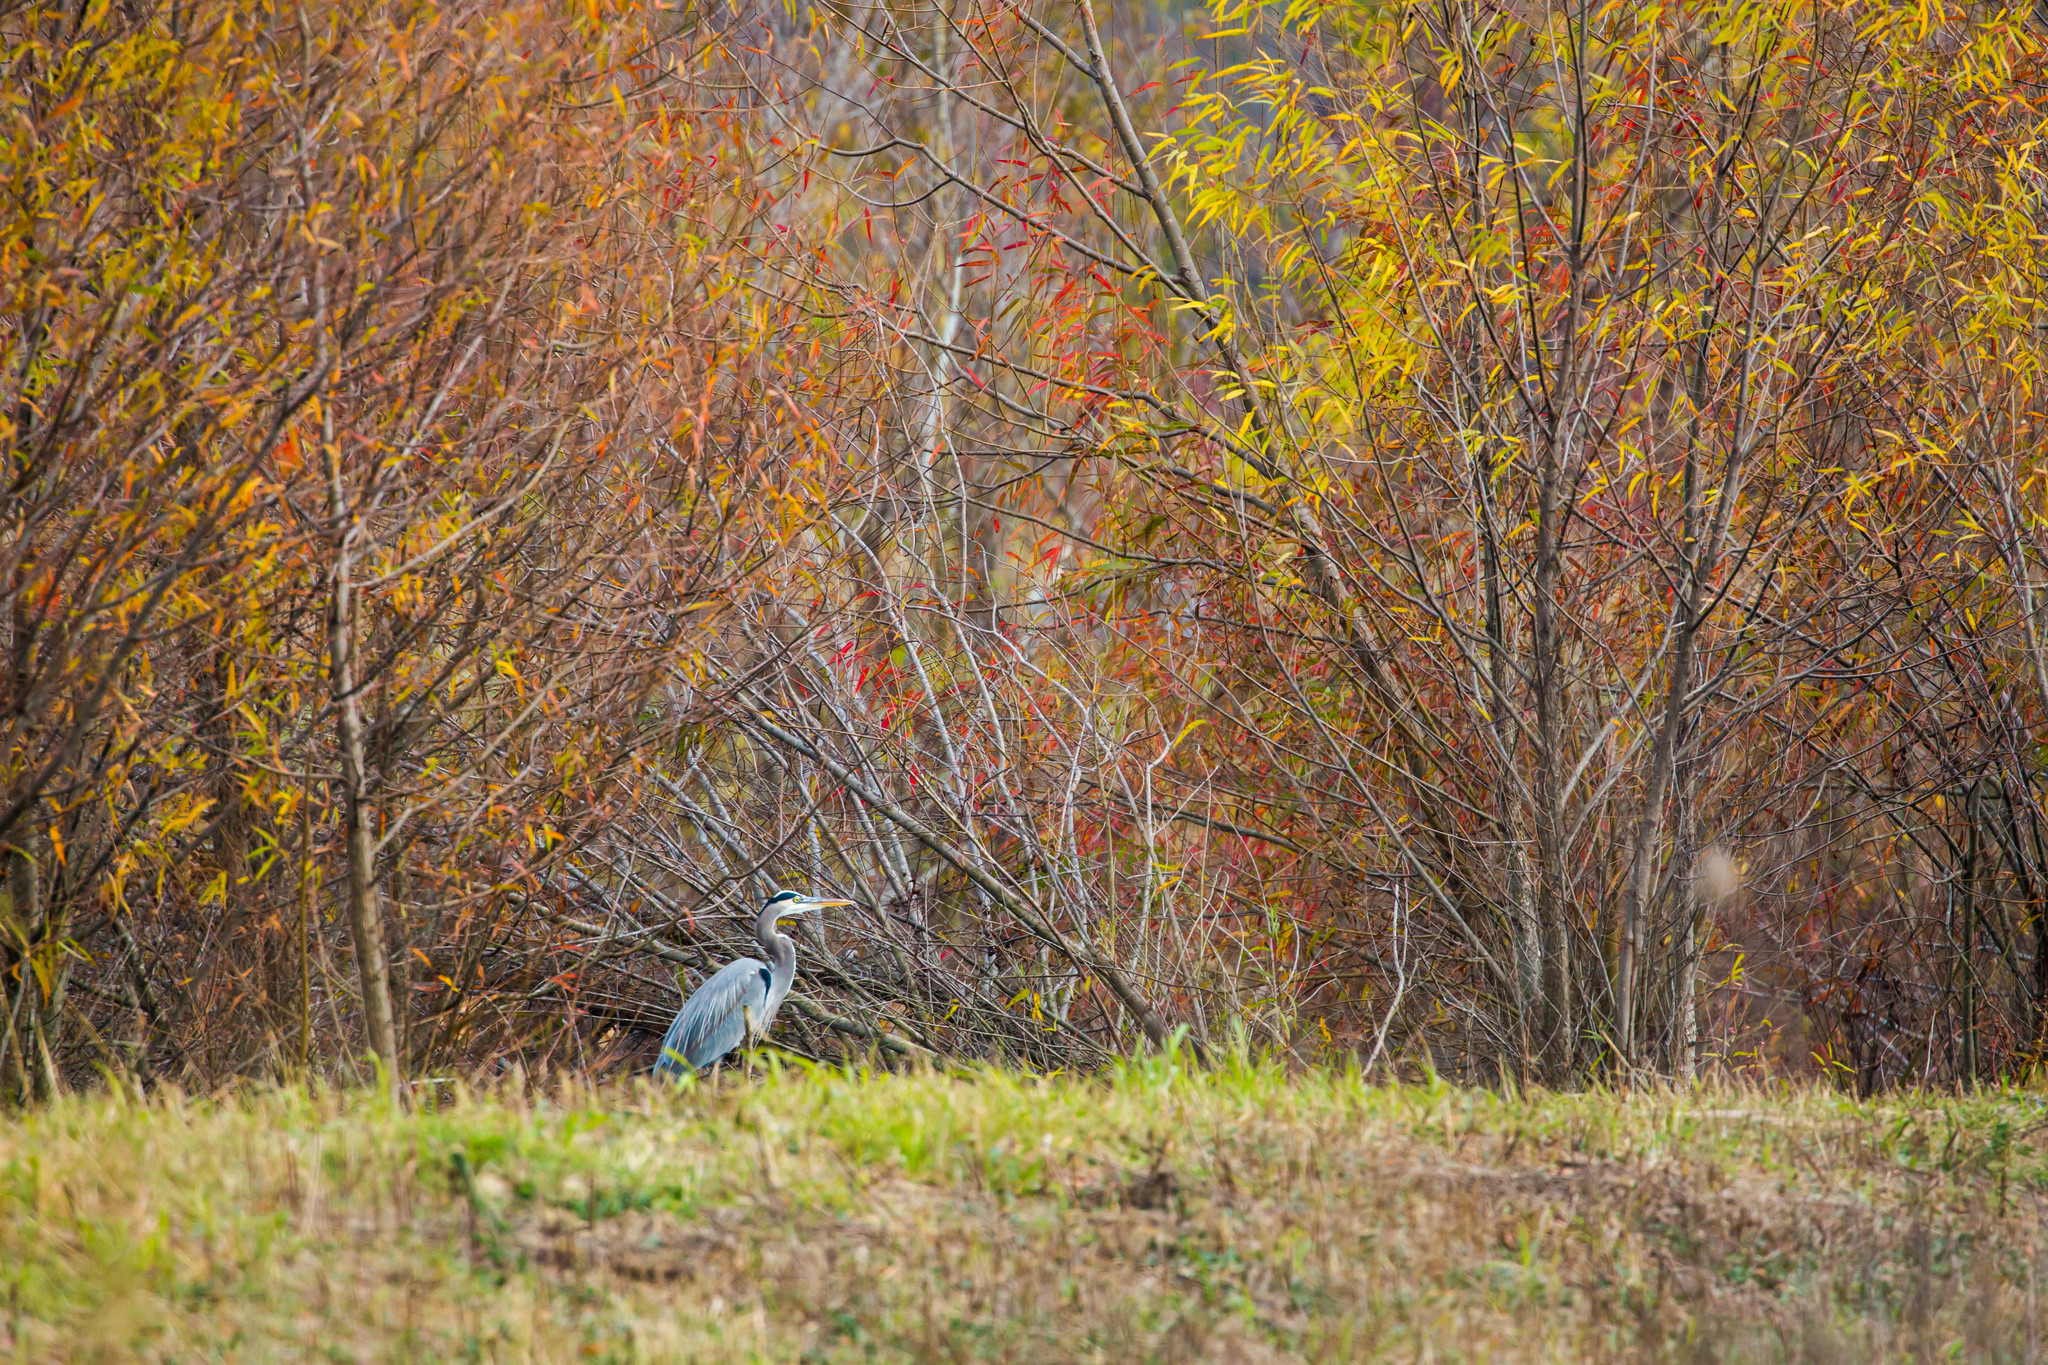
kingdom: Animalia
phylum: Chordata
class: Aves
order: Pelecaniformes
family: Ardeidae
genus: Ardea
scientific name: Ardea herodias
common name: Great blue heron
